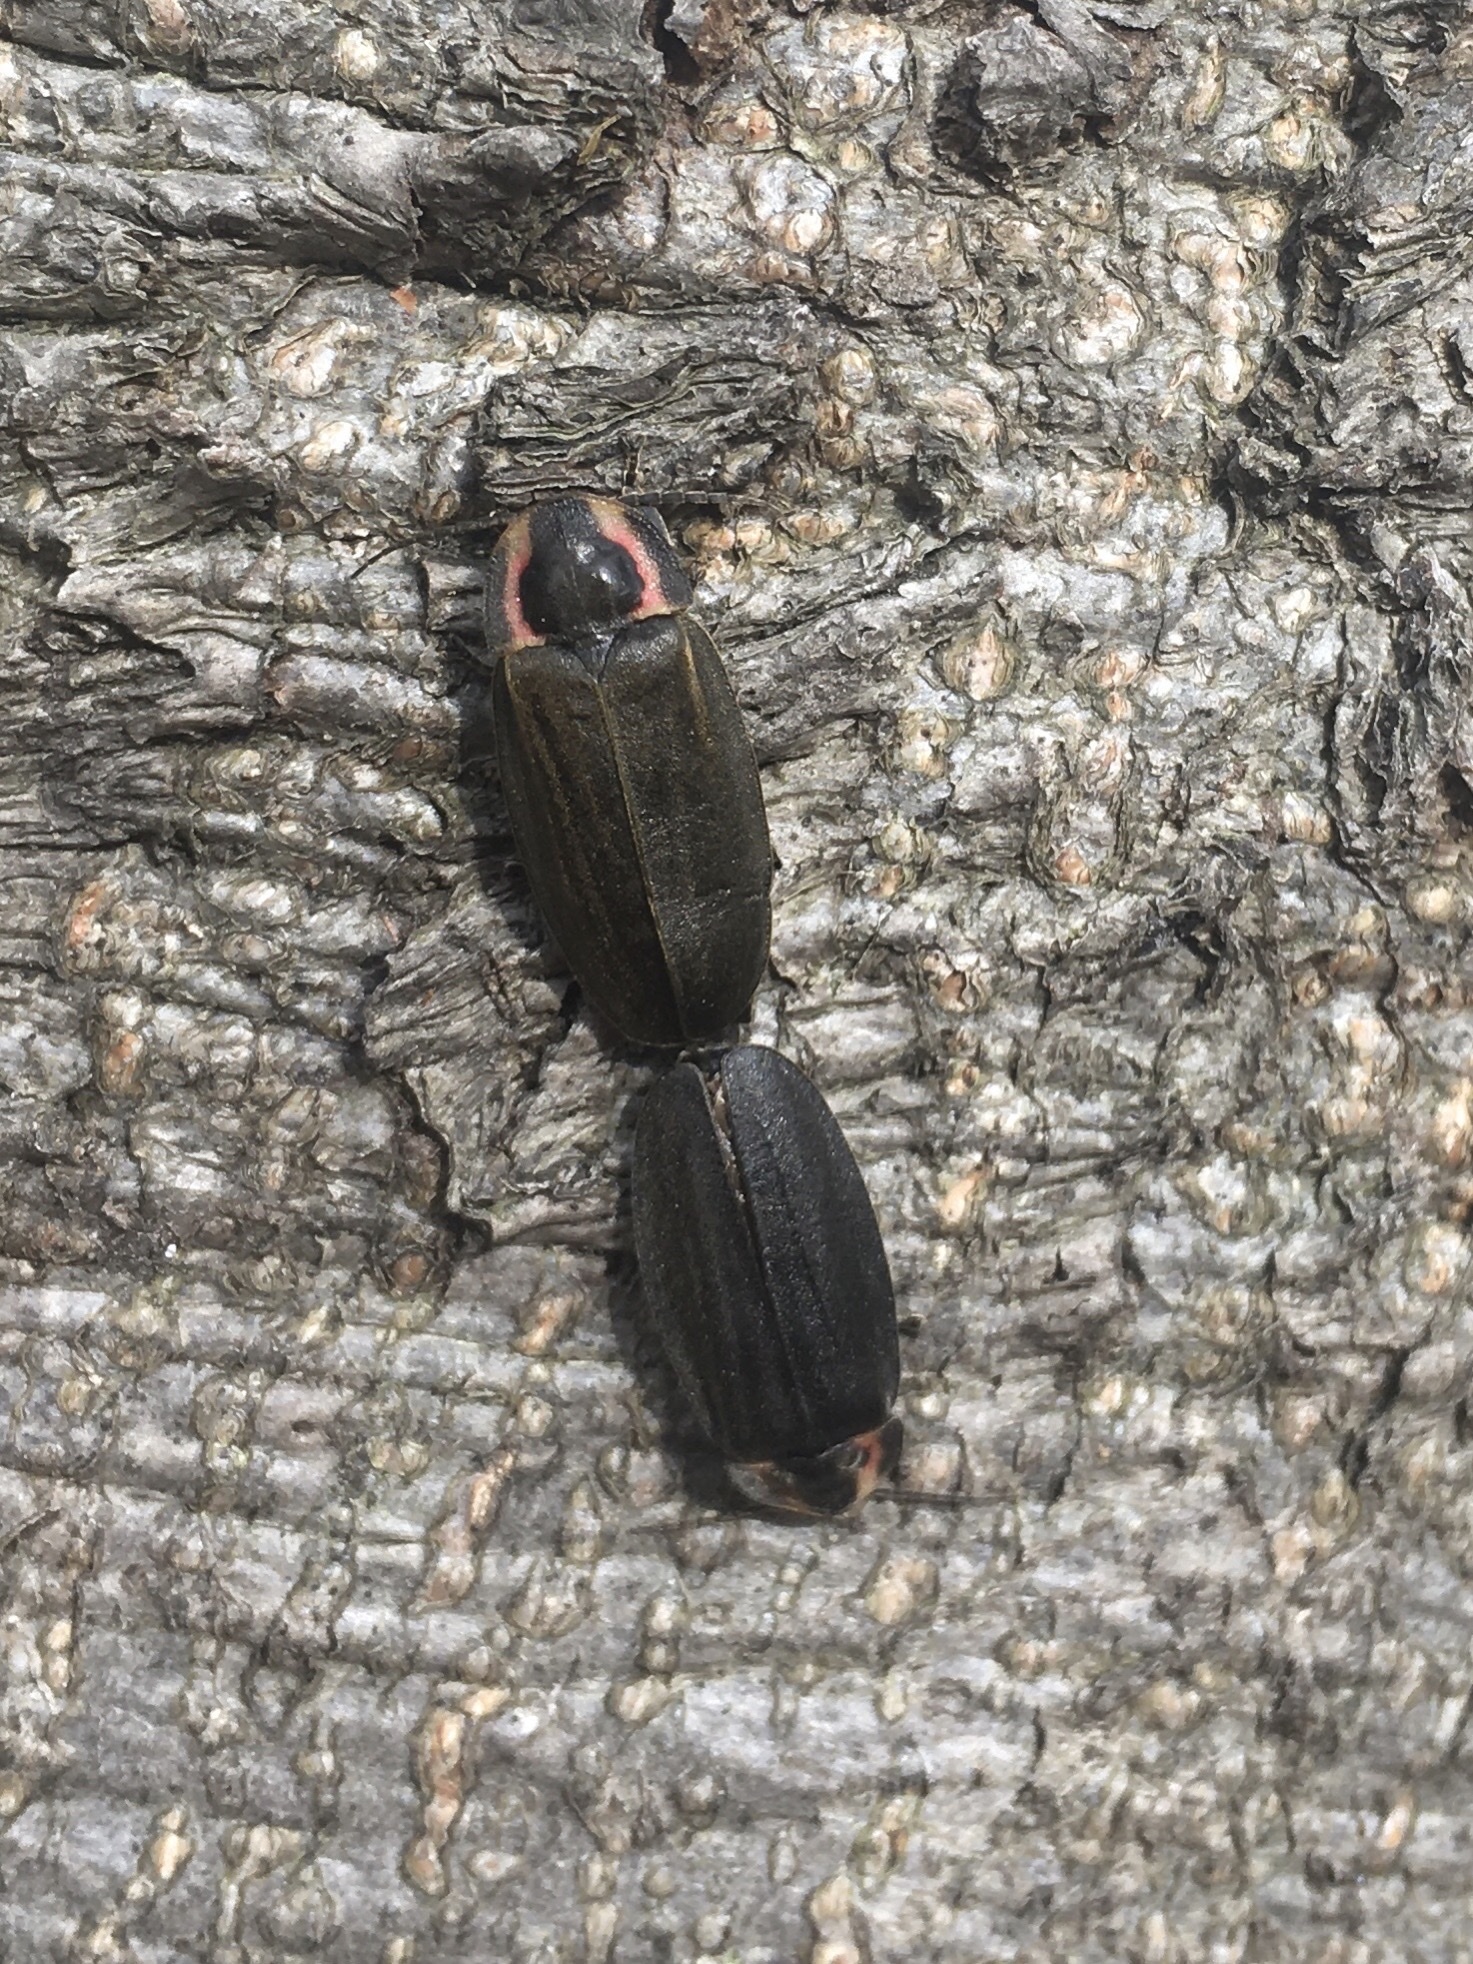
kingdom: Animalia
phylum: Arthropoda
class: Insecta
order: Coleoptera
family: Lampyridae
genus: Photinus
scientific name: Photinus corrusca
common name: Winter firefly
